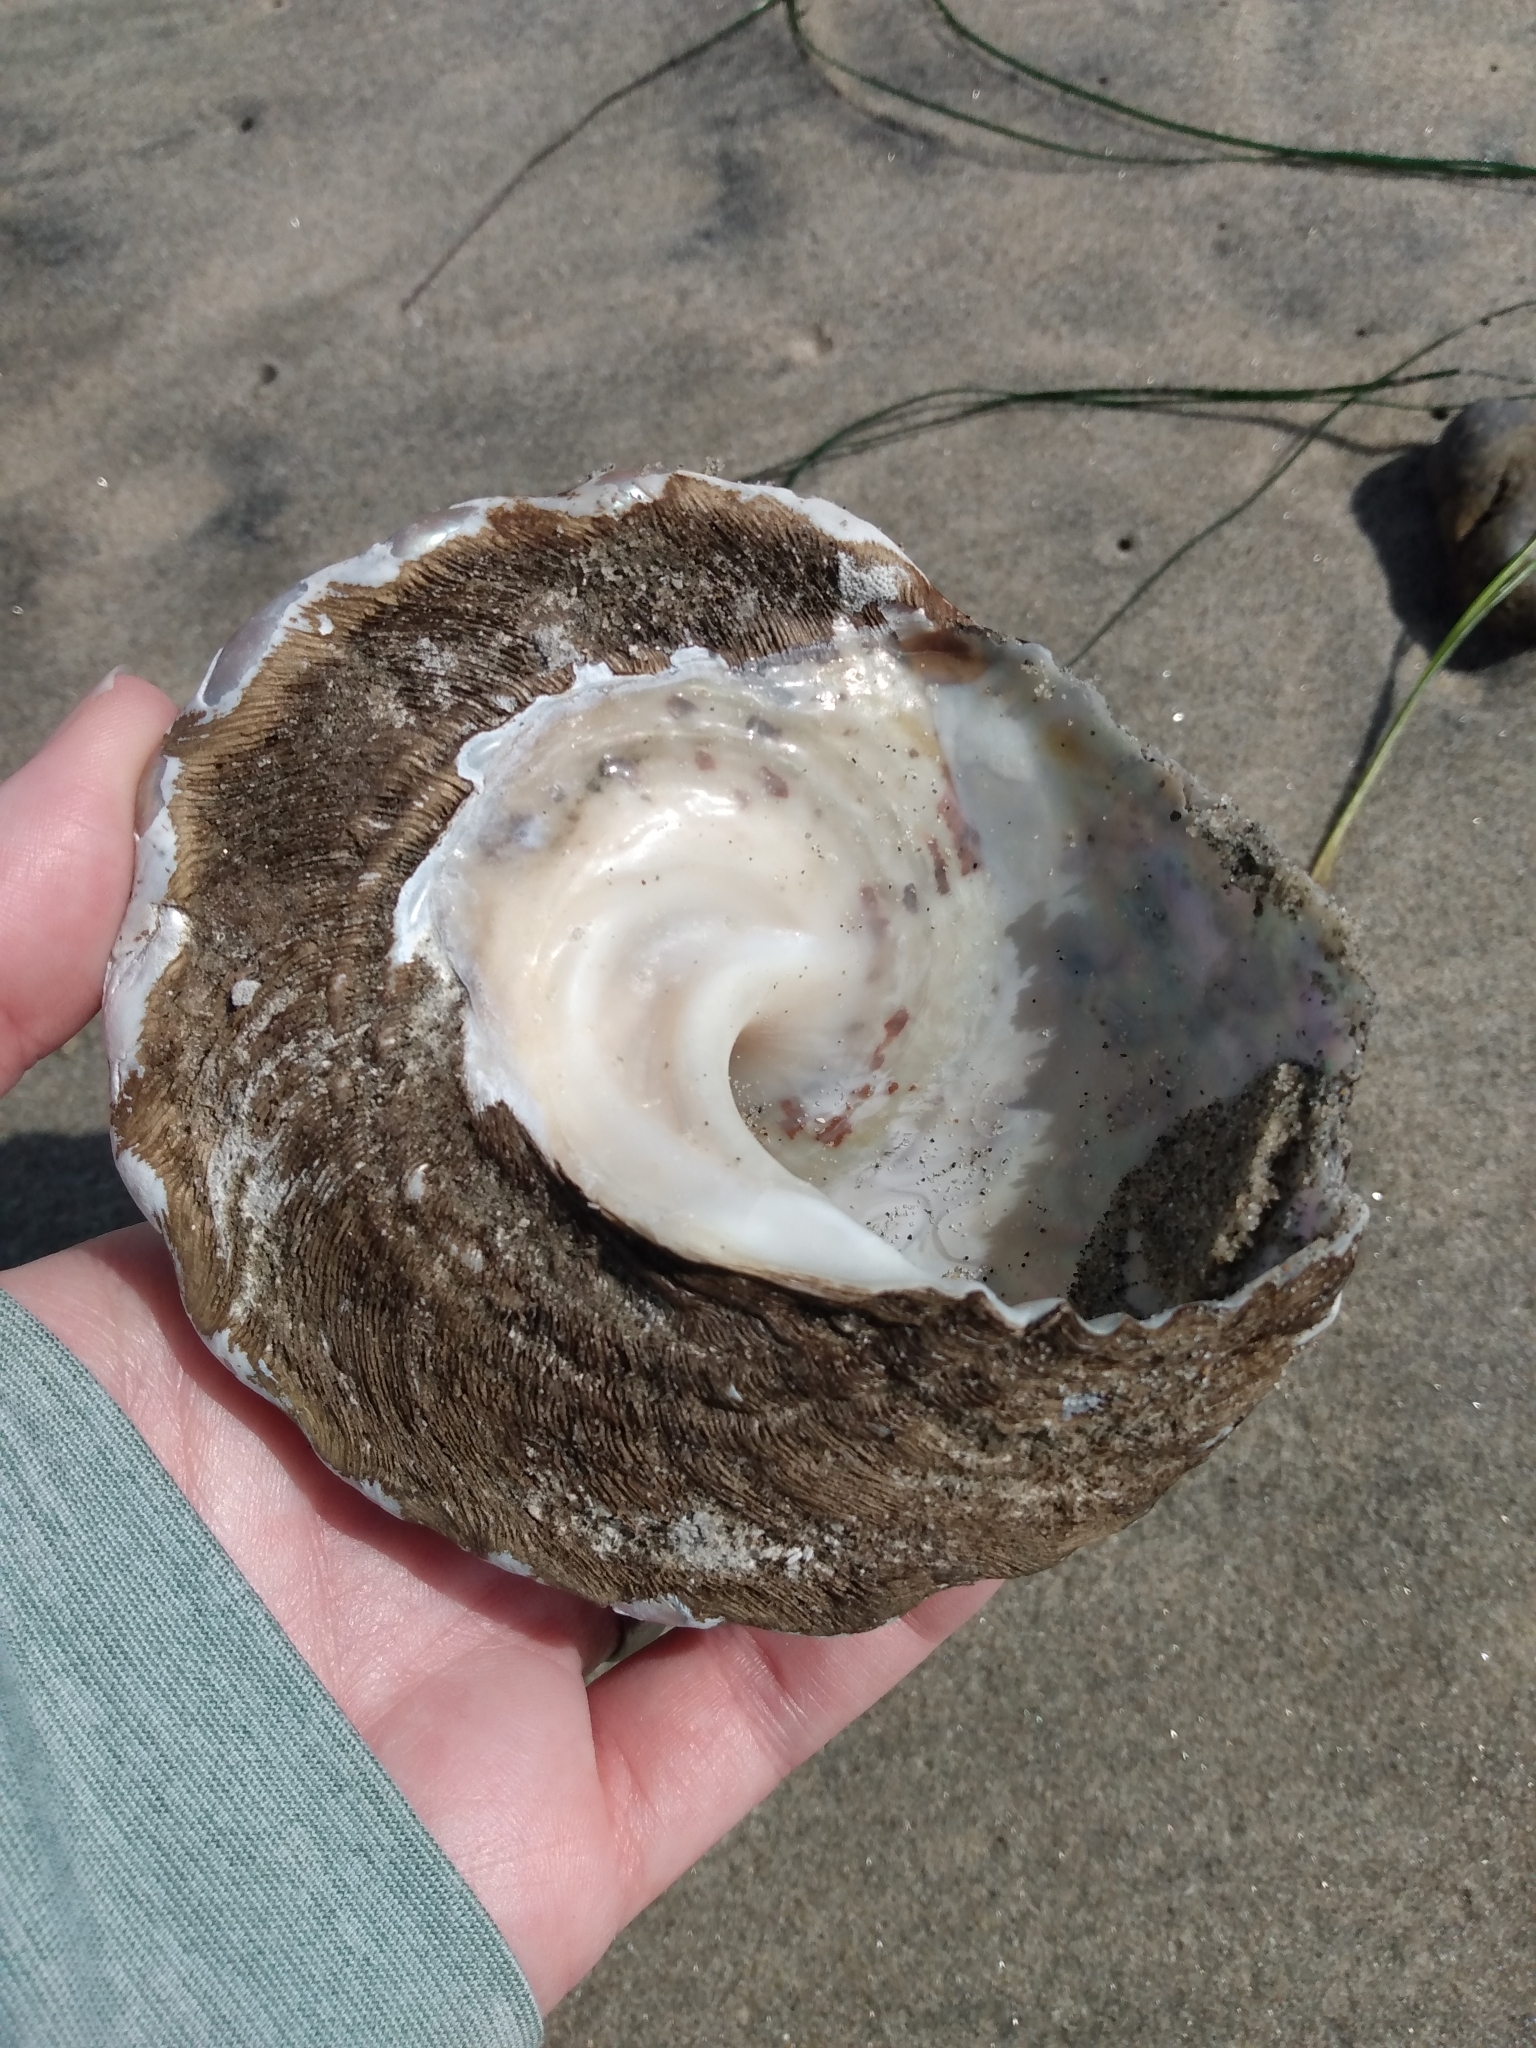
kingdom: Animalia
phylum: Mollusca
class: Gastropoda
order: Trochida
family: Turbinidae
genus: Megastraea
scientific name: Megastraea undosa
